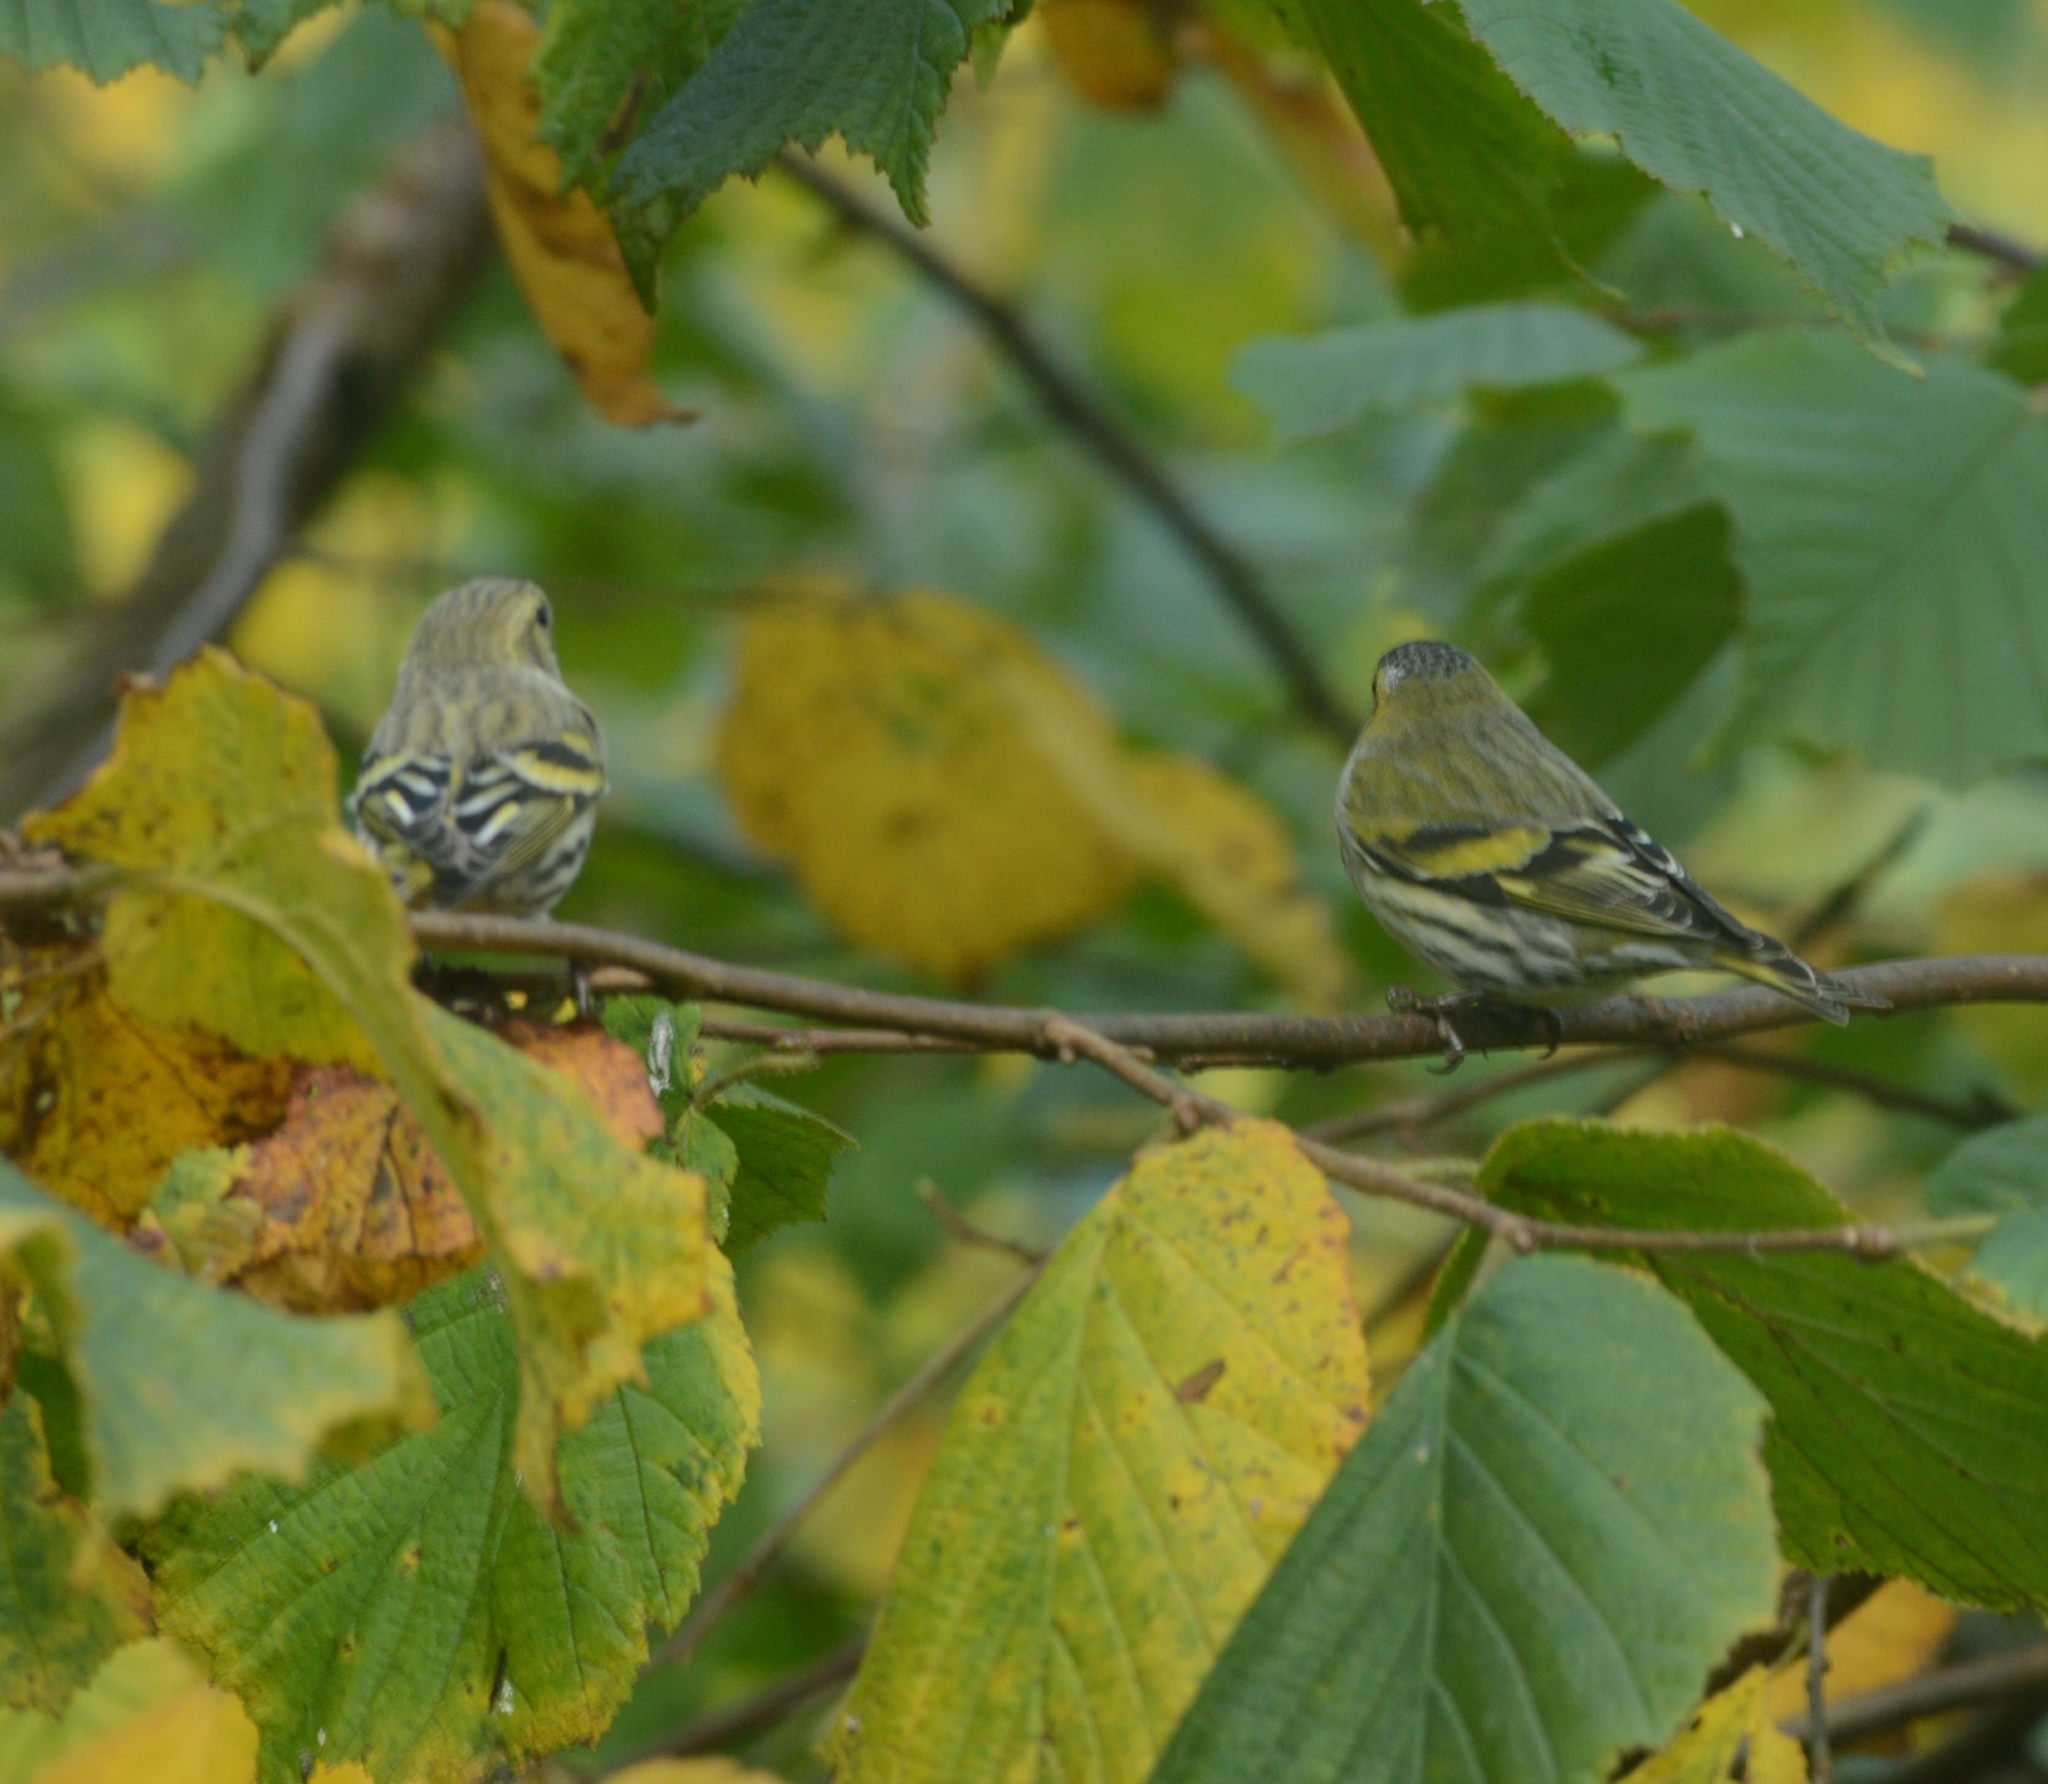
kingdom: Animalia
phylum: Chordata
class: Aves
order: Passeriformes
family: Fringillidae
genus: Spinus
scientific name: Spinus spinus
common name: Eurasian siskin
